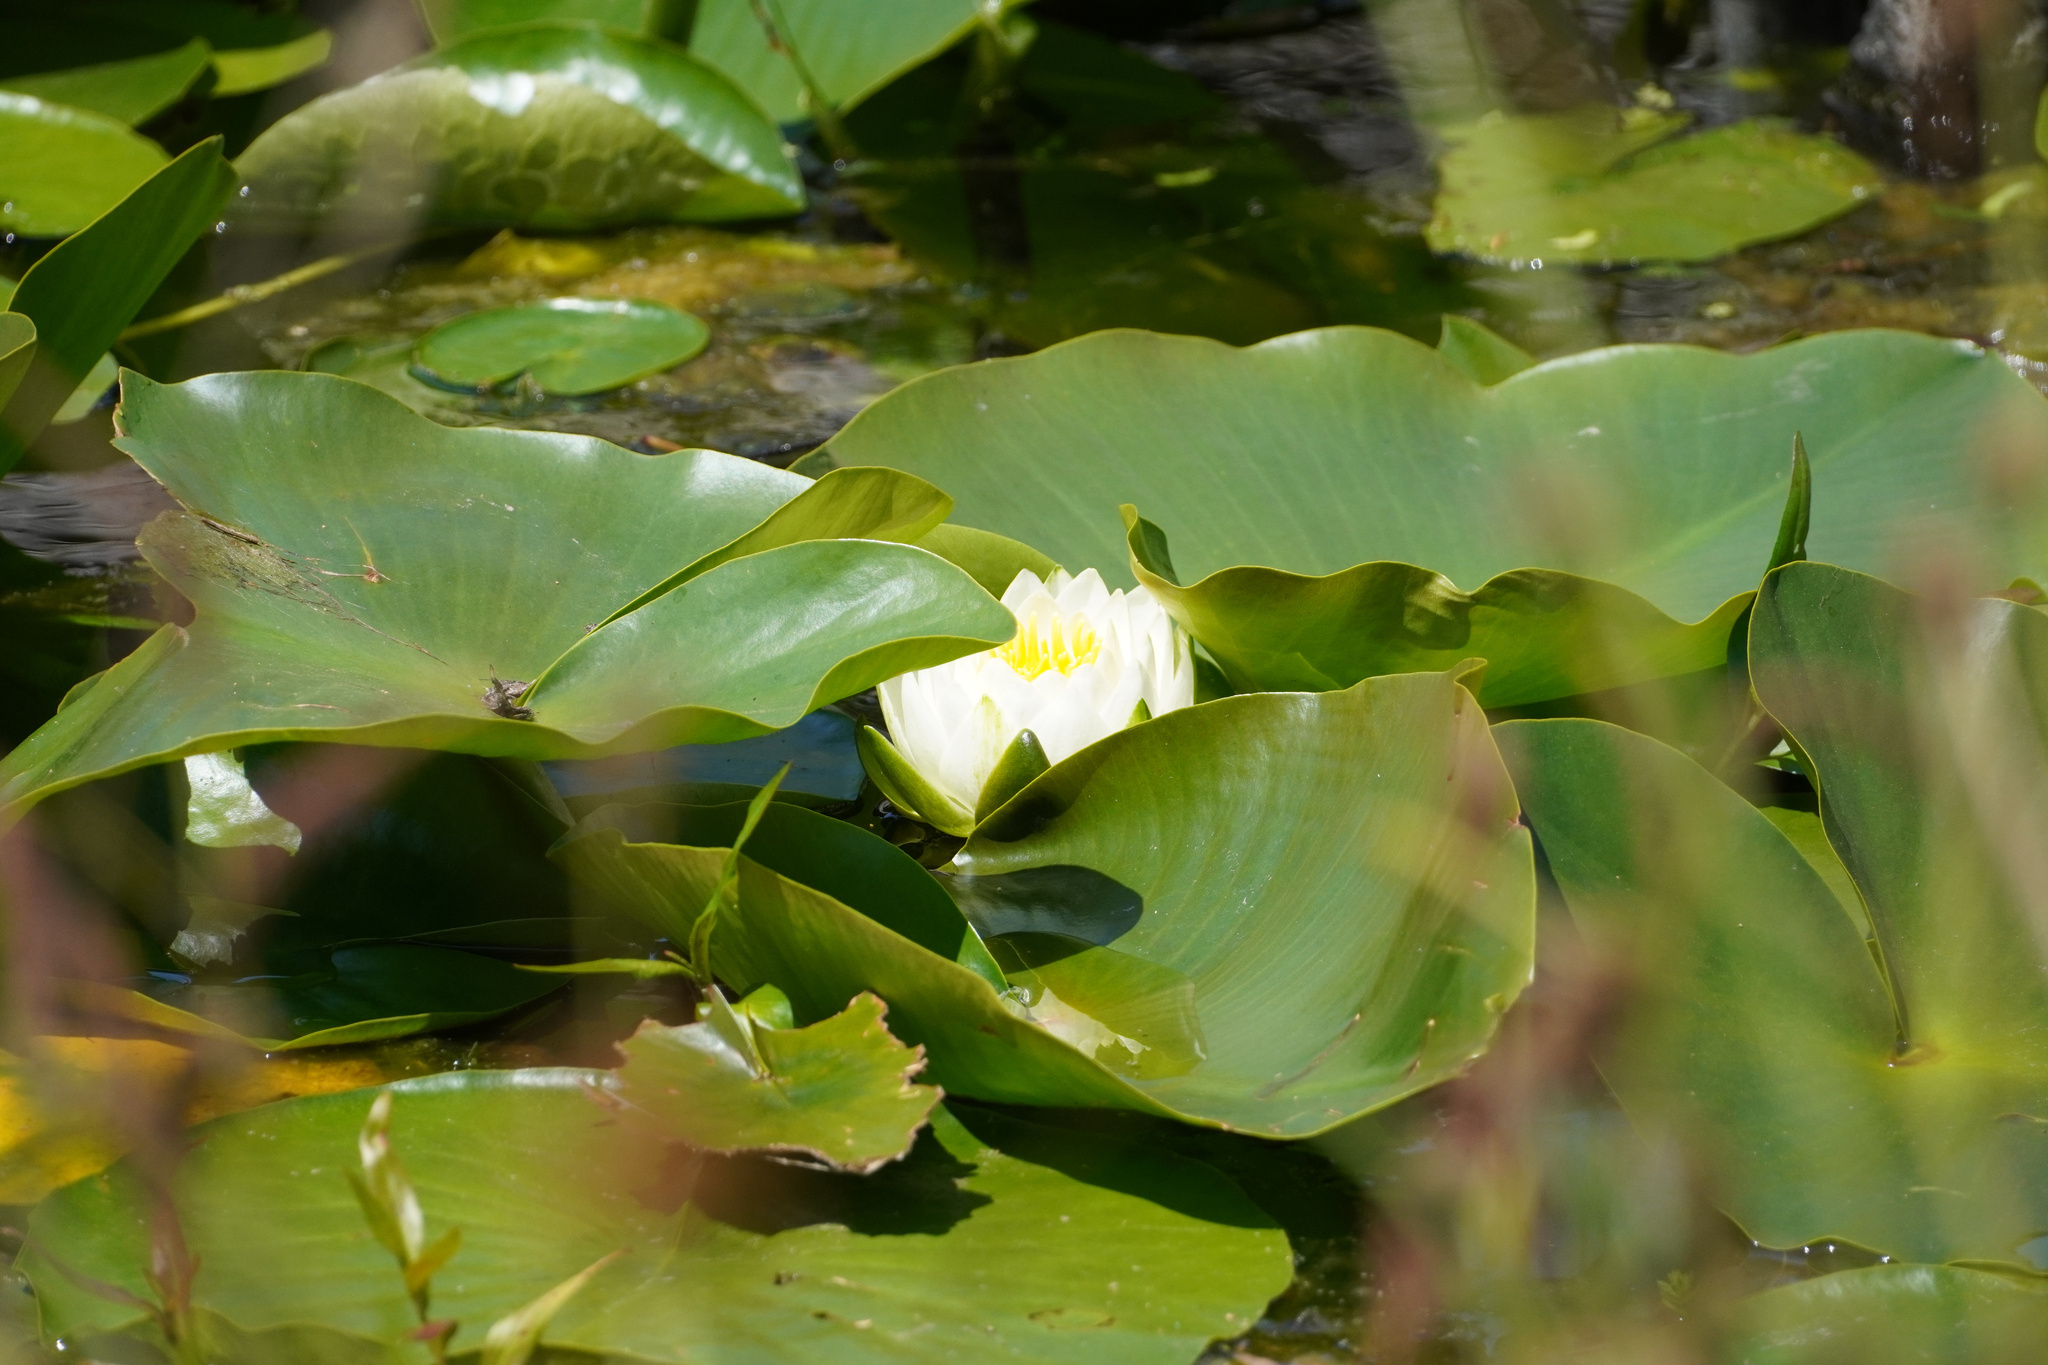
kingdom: Plantae
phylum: Tracheophyta
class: Magnoliopsida
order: Nymphaeales
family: Nymphaeaceae
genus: Nymphaea
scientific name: Nymphaea odorata
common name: Fragrant water-lily
